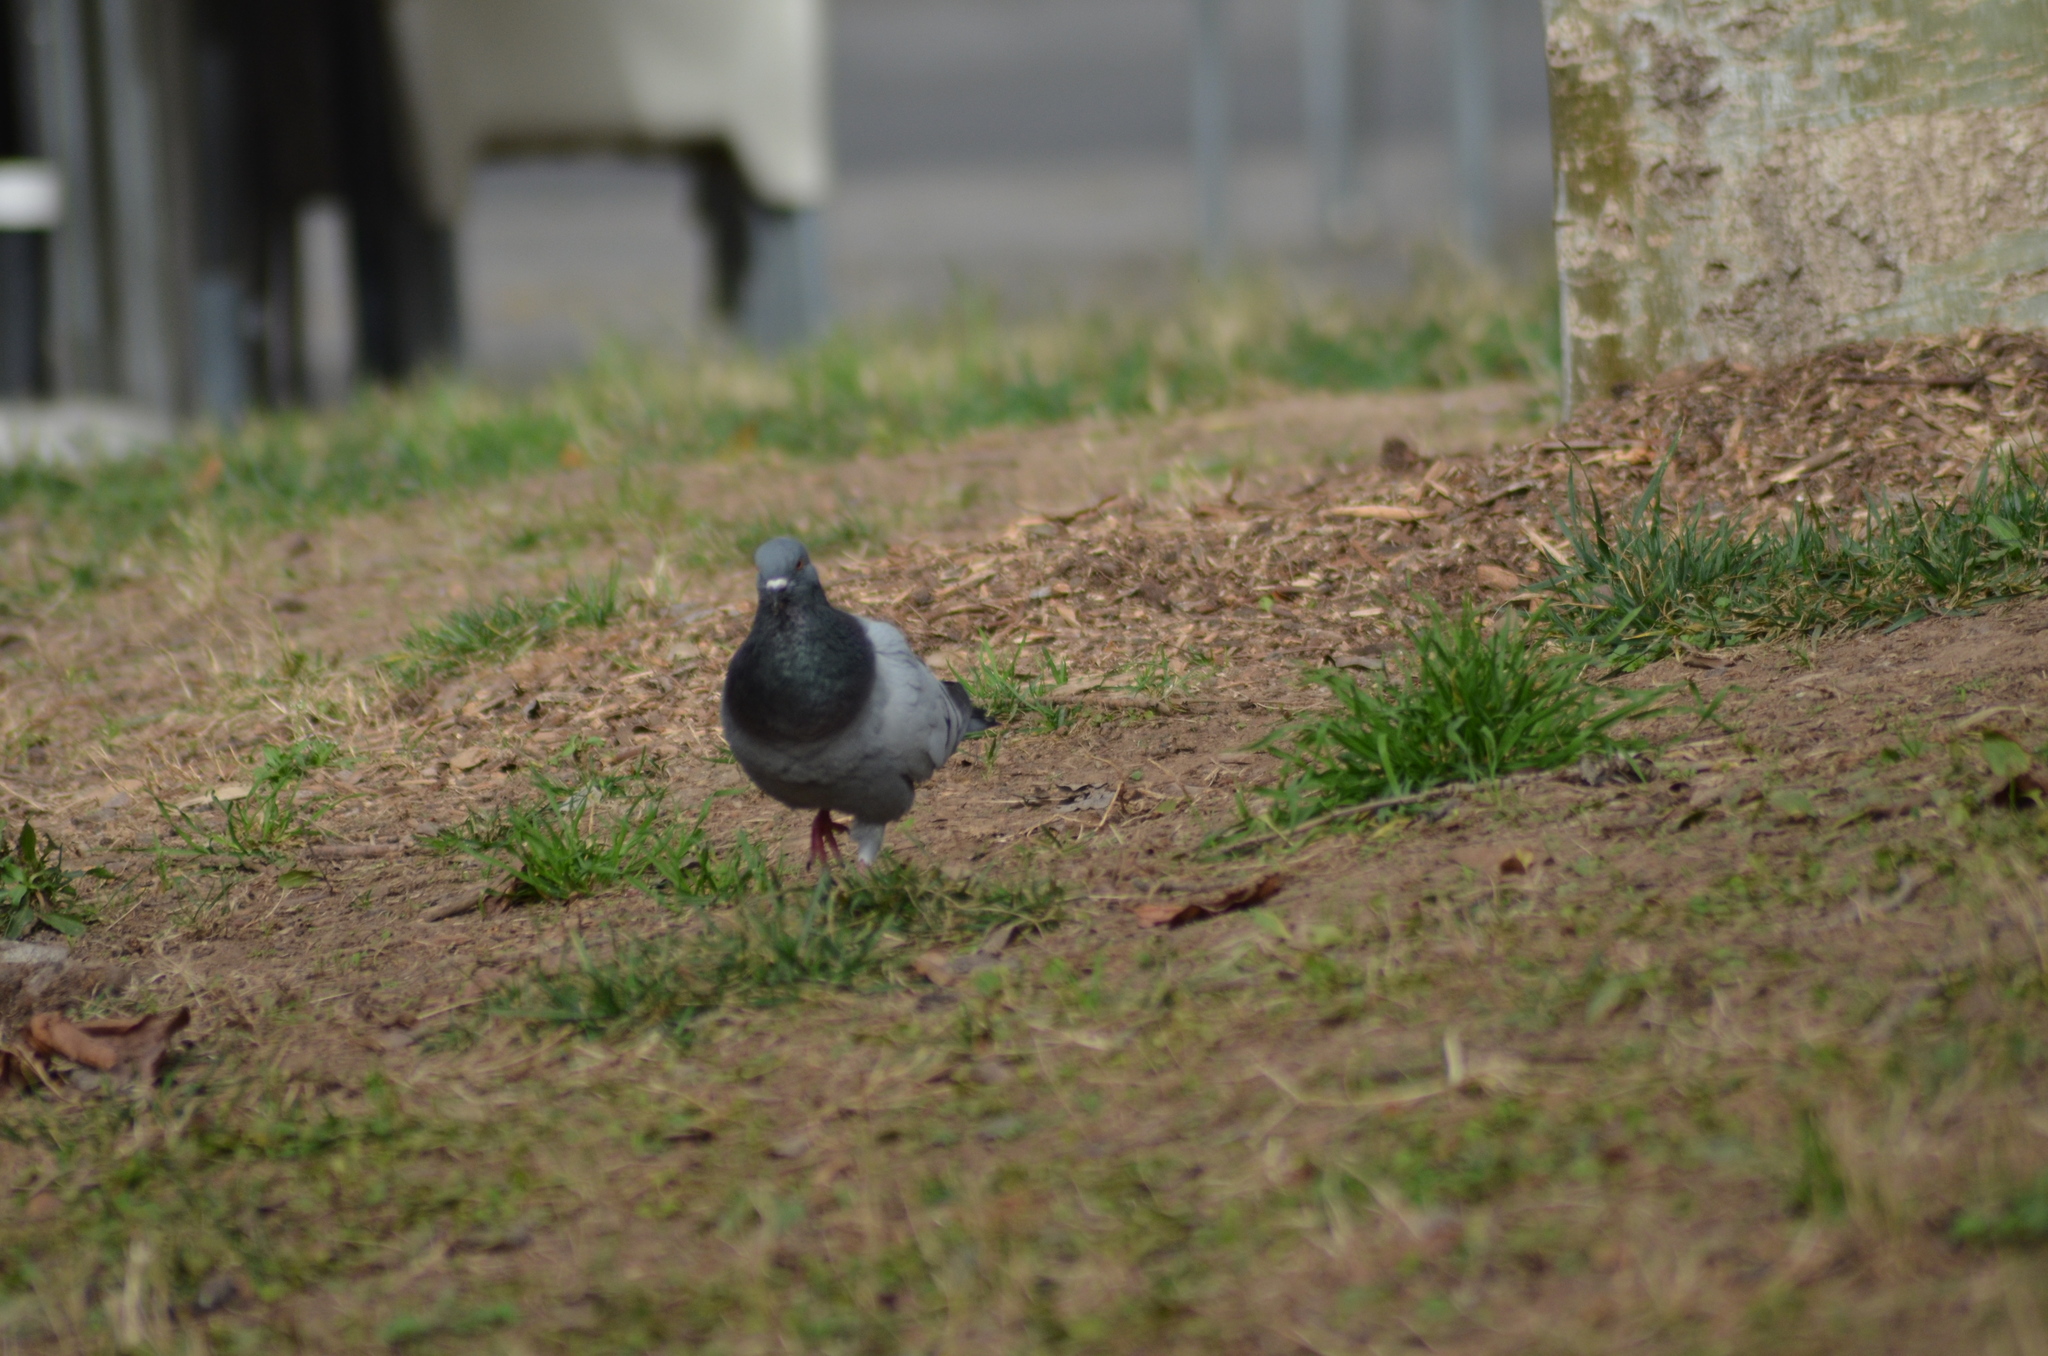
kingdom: Animalia
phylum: Chordata
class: Aves
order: Columbiformes
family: Columbidae
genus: Columba
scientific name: Columba livia
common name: Rock pigeon
